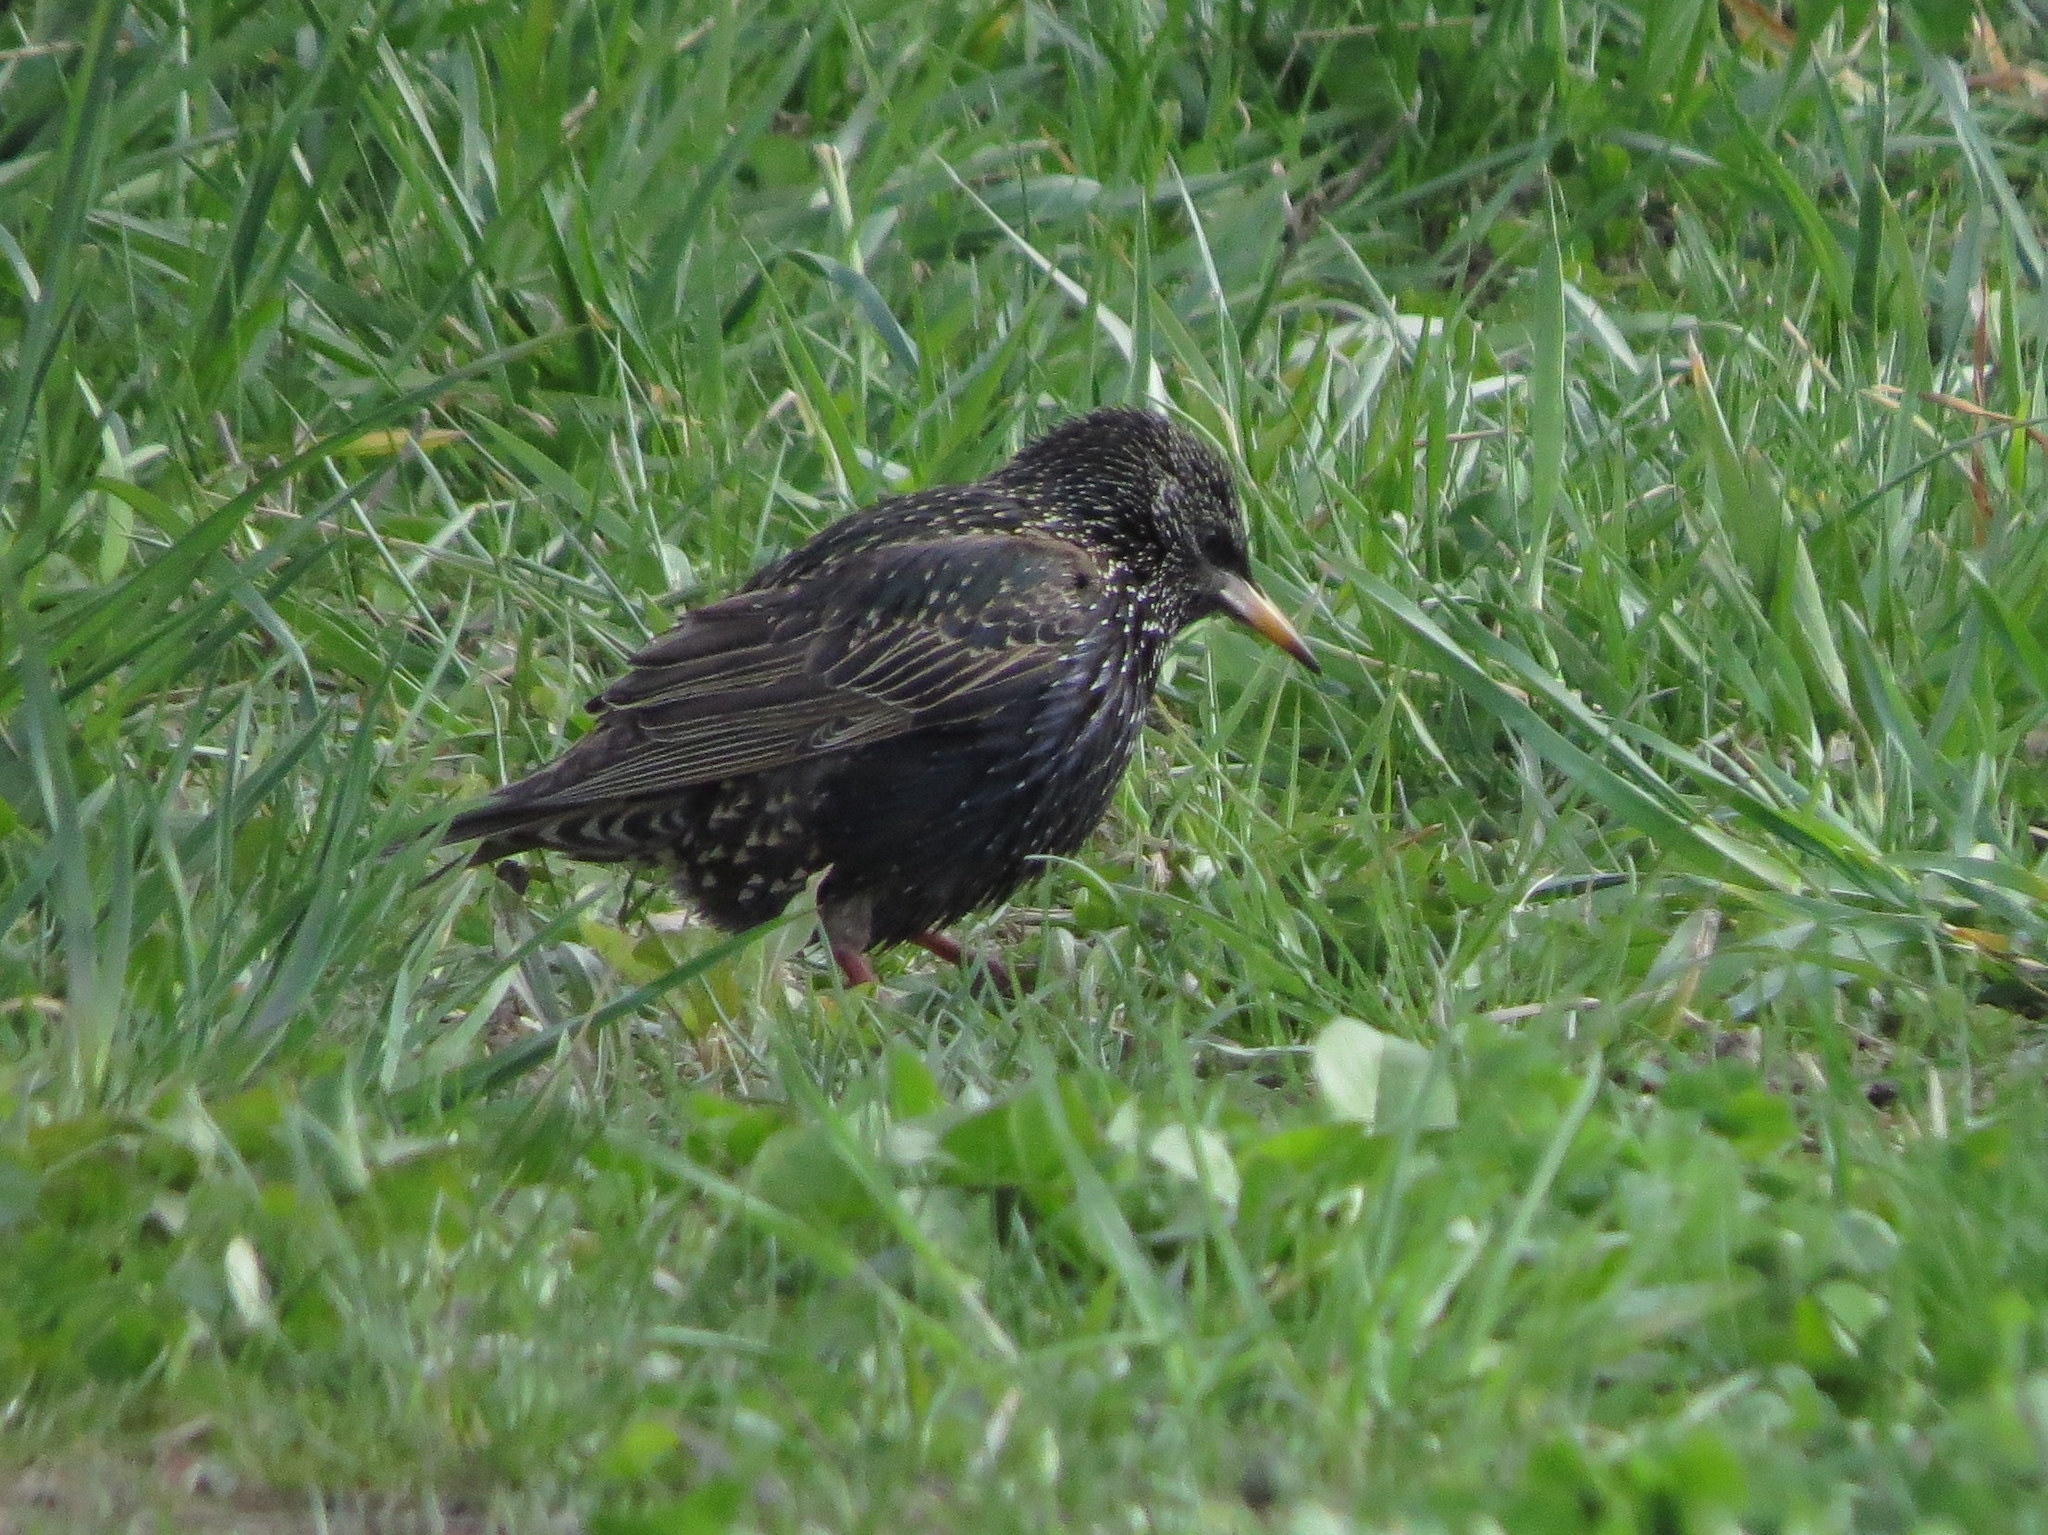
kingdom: Animalia
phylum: Chordata
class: Aves
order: Passeriformes
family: Sturnidae
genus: Sturnus
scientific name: Sturnus vulgaris
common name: Common starling
